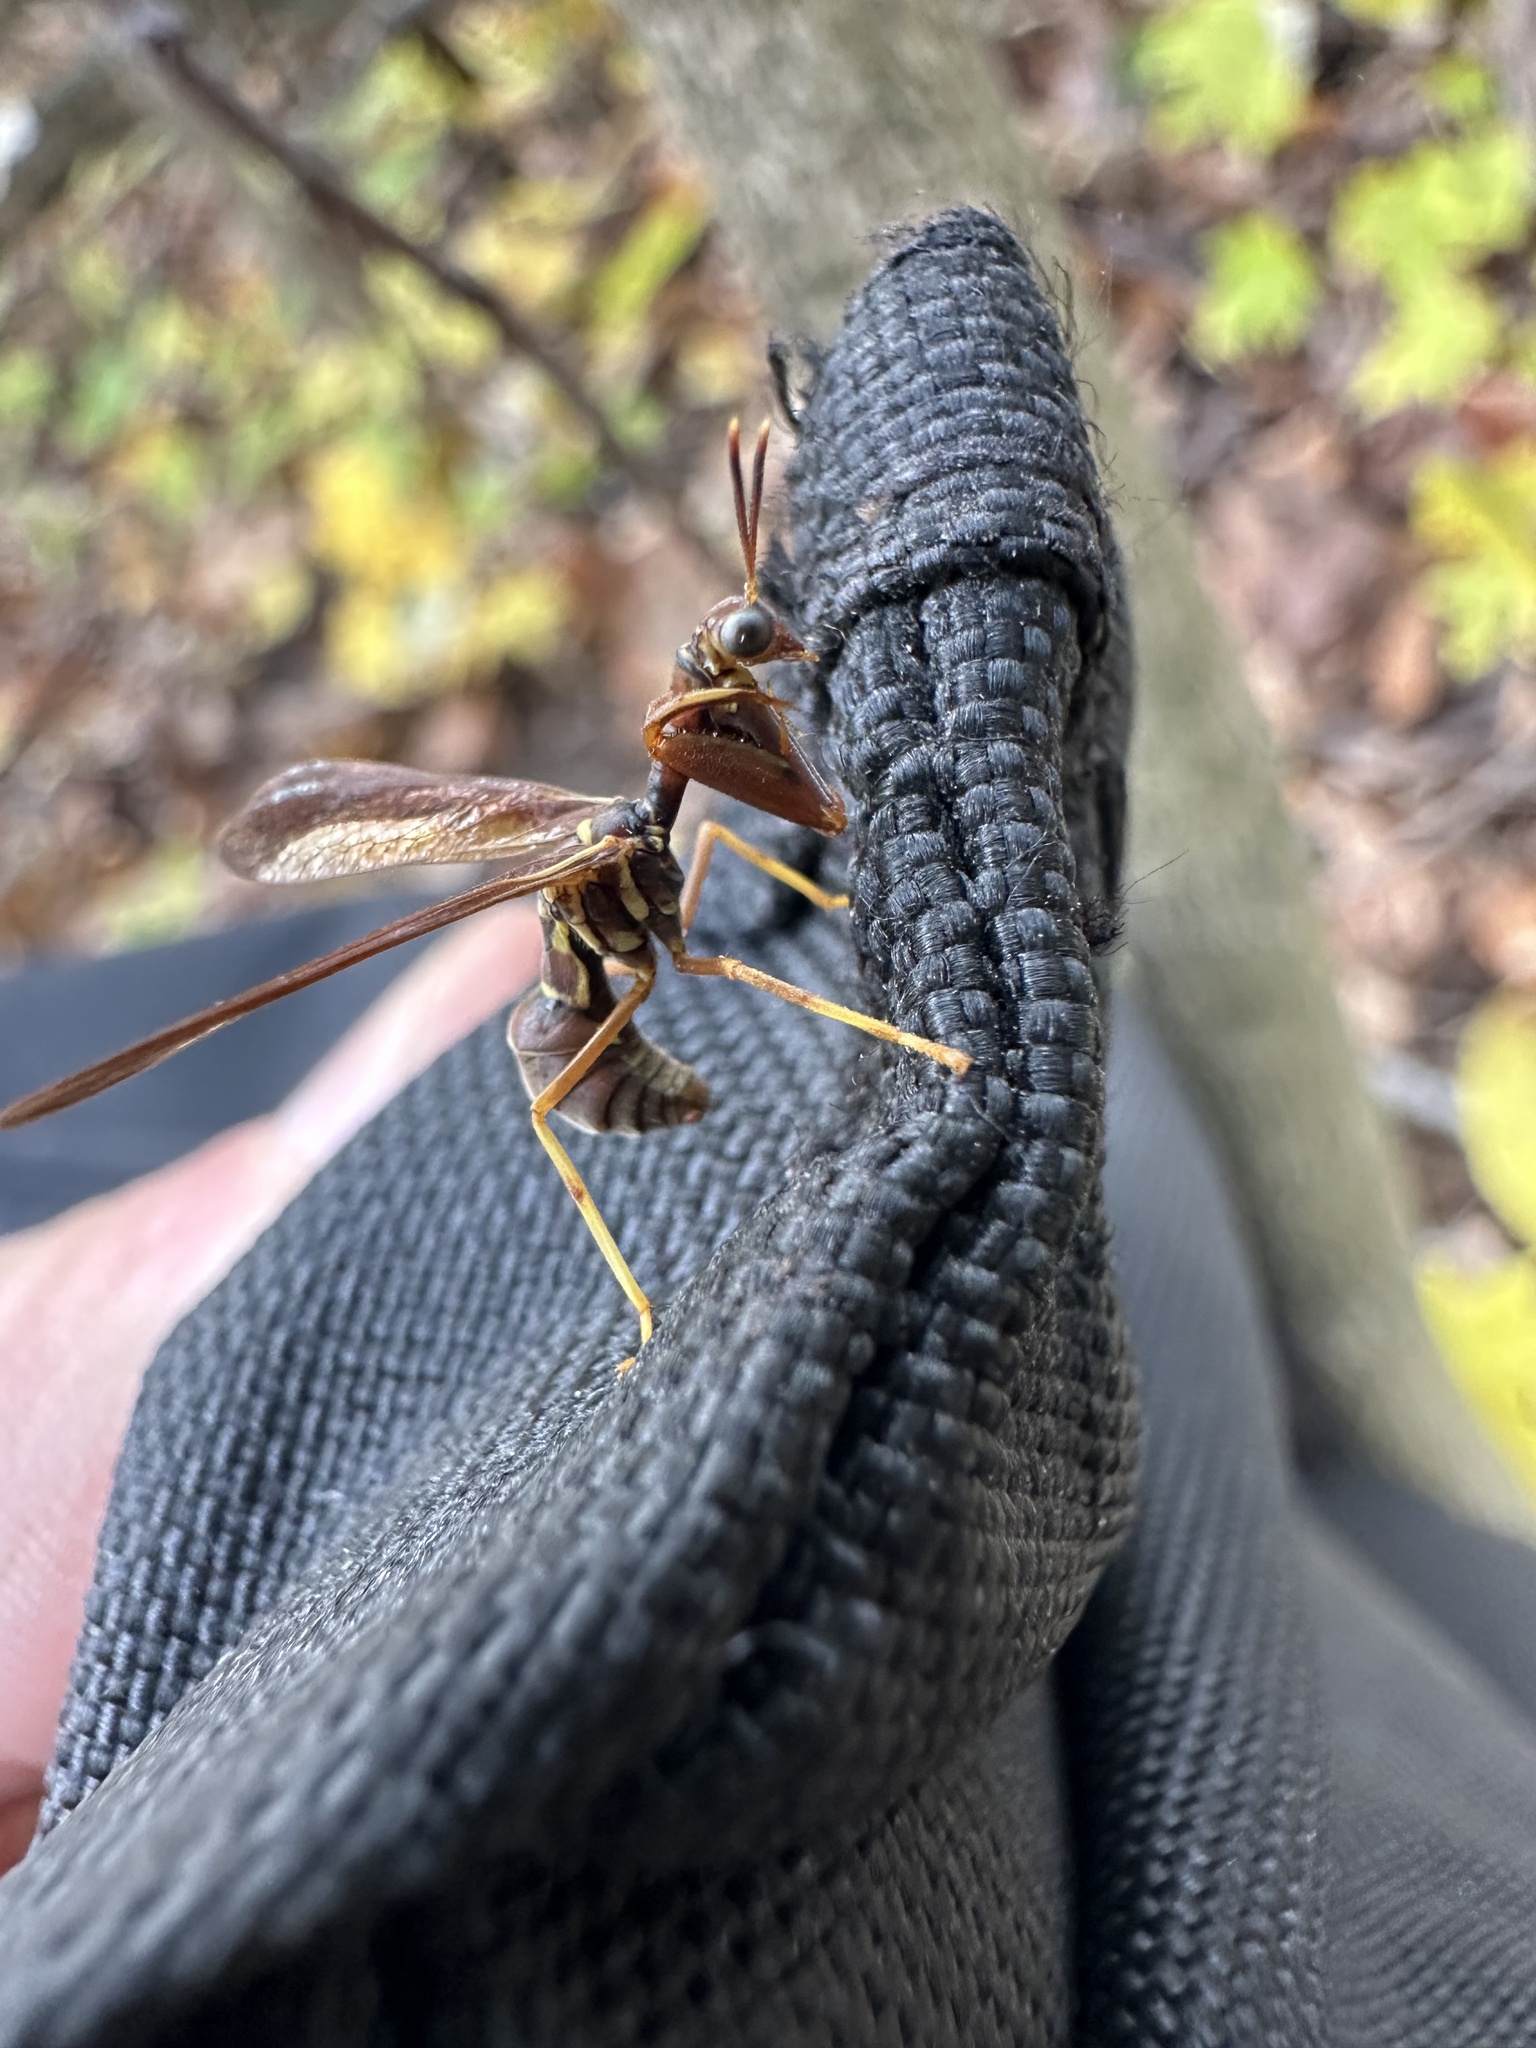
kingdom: Animalia
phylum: Arthropoda
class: Insecta
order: Neuroptera
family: Mantispidae
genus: Climaciella
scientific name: Climaciella brunnea
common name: Brown wasp mantidfly
